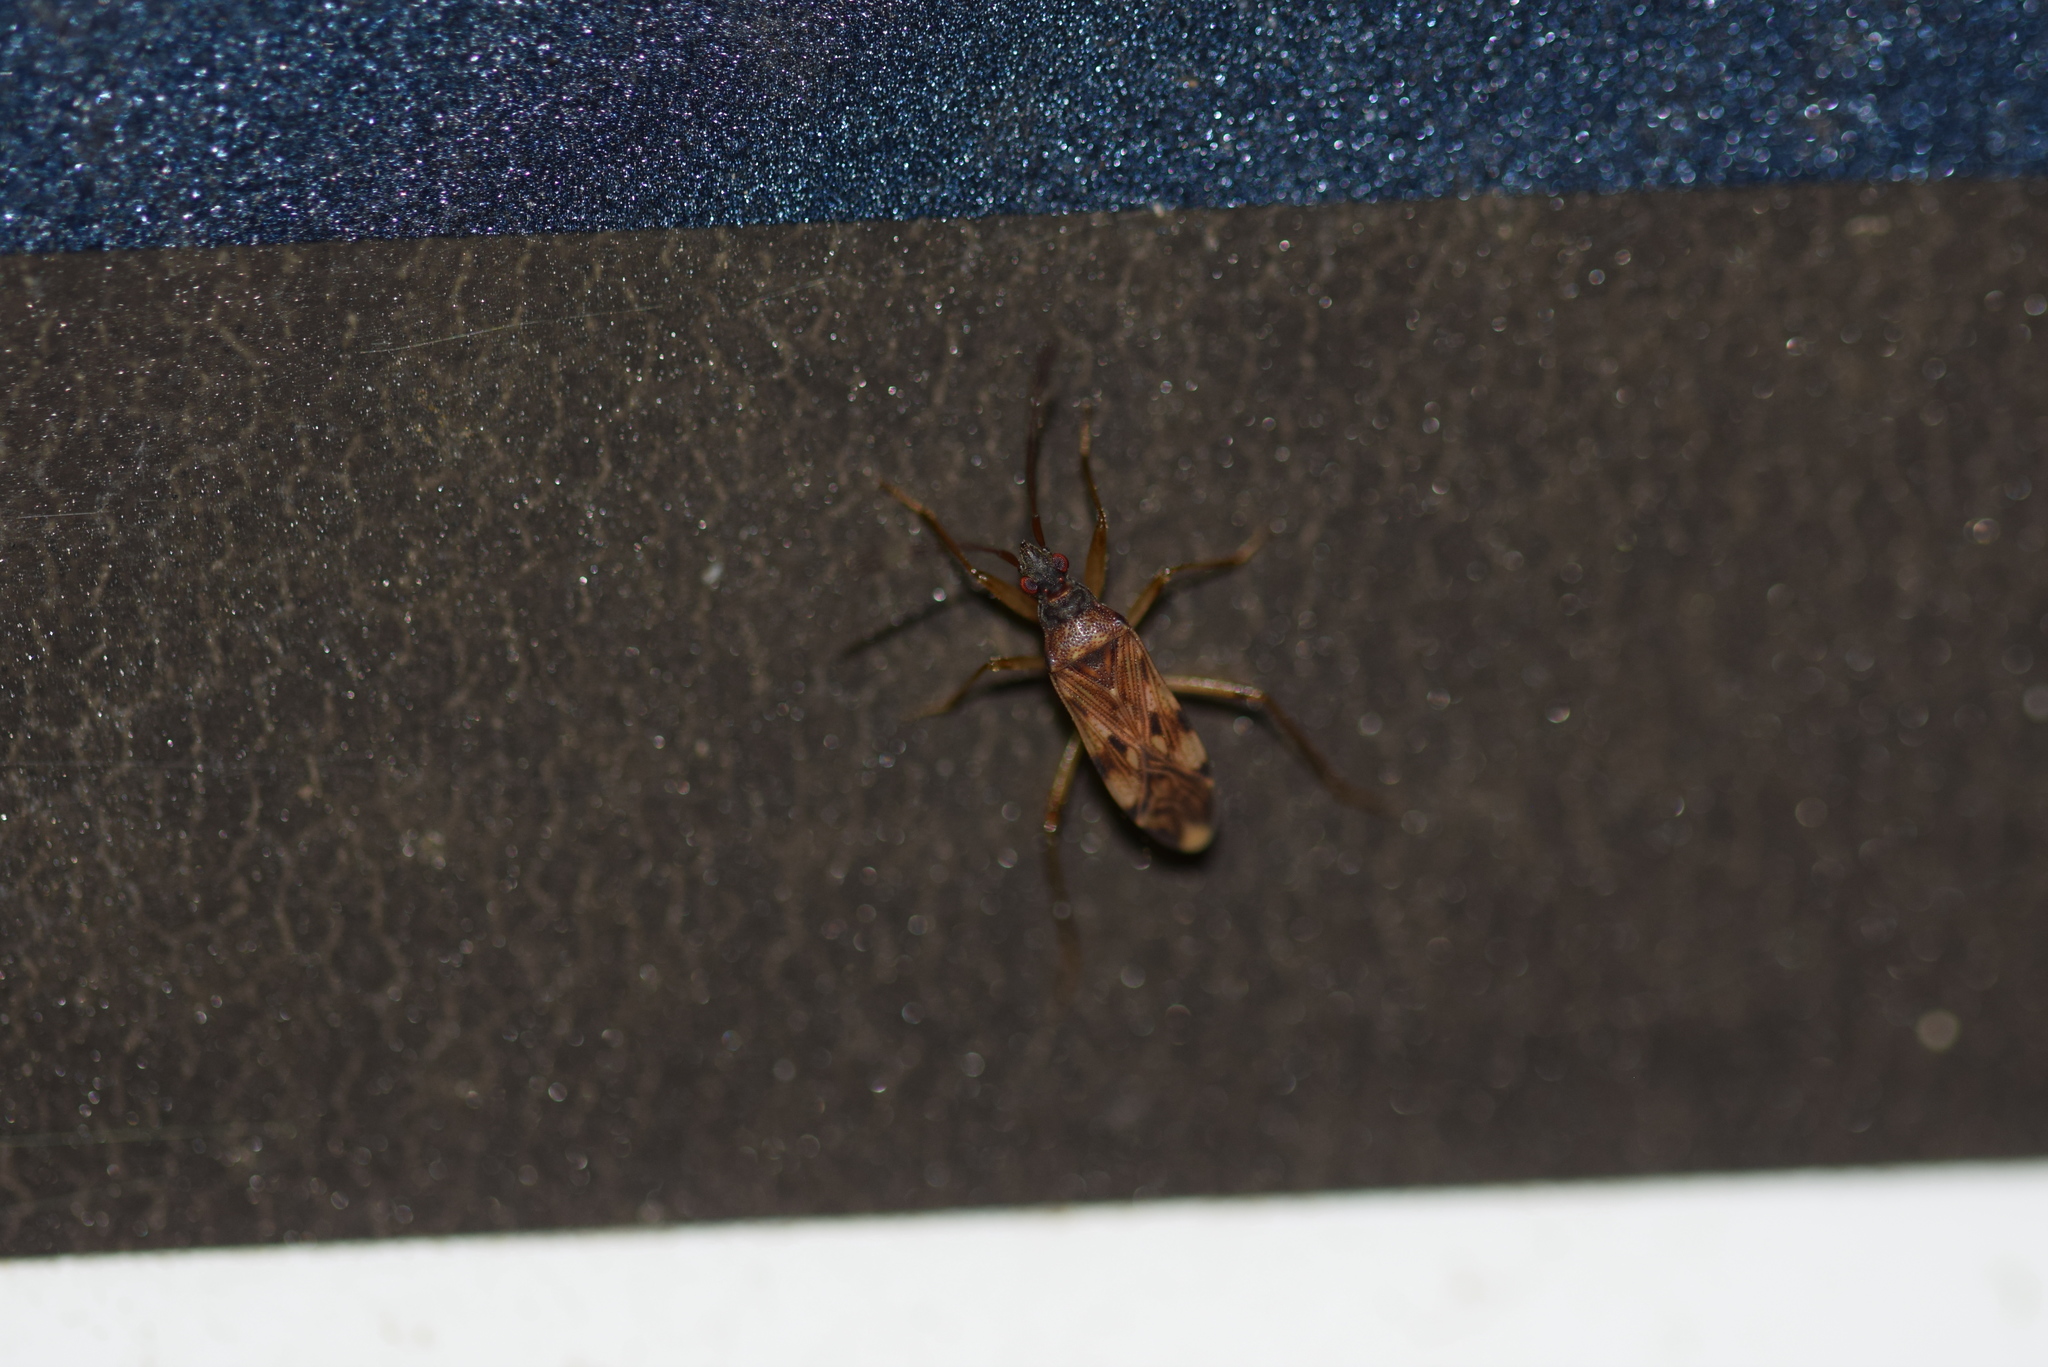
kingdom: Animalia
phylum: Arthropoda
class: Insecta
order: Hemiptera
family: Rhyparochromidae
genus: Ozophora
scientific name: Ozophora picturata
